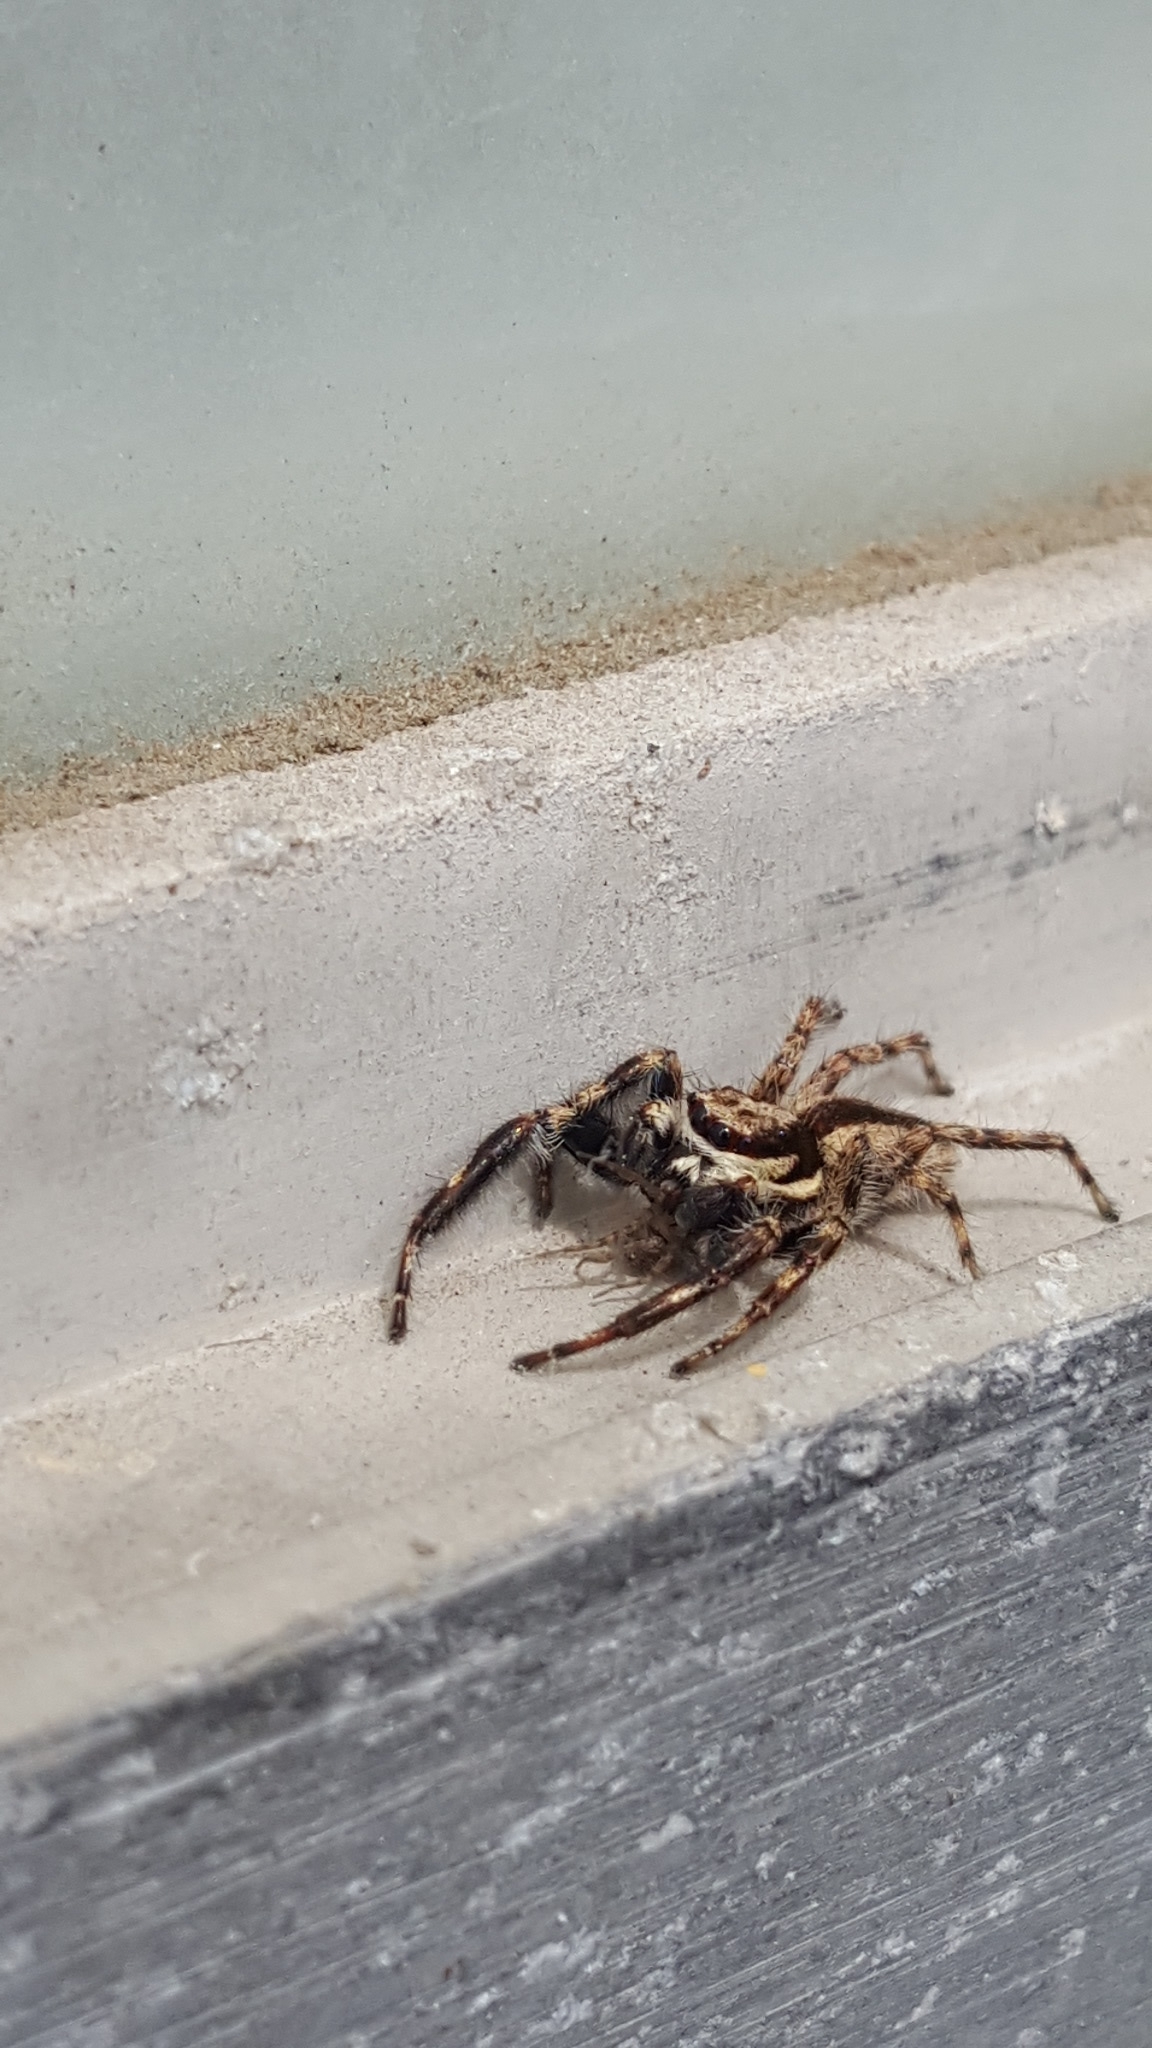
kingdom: Animalia
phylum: Arthropoda
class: Arachnida
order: Araneae
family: Salticidae
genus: Menemerus
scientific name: Menemerus bivittatus
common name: Gray wall jumper
